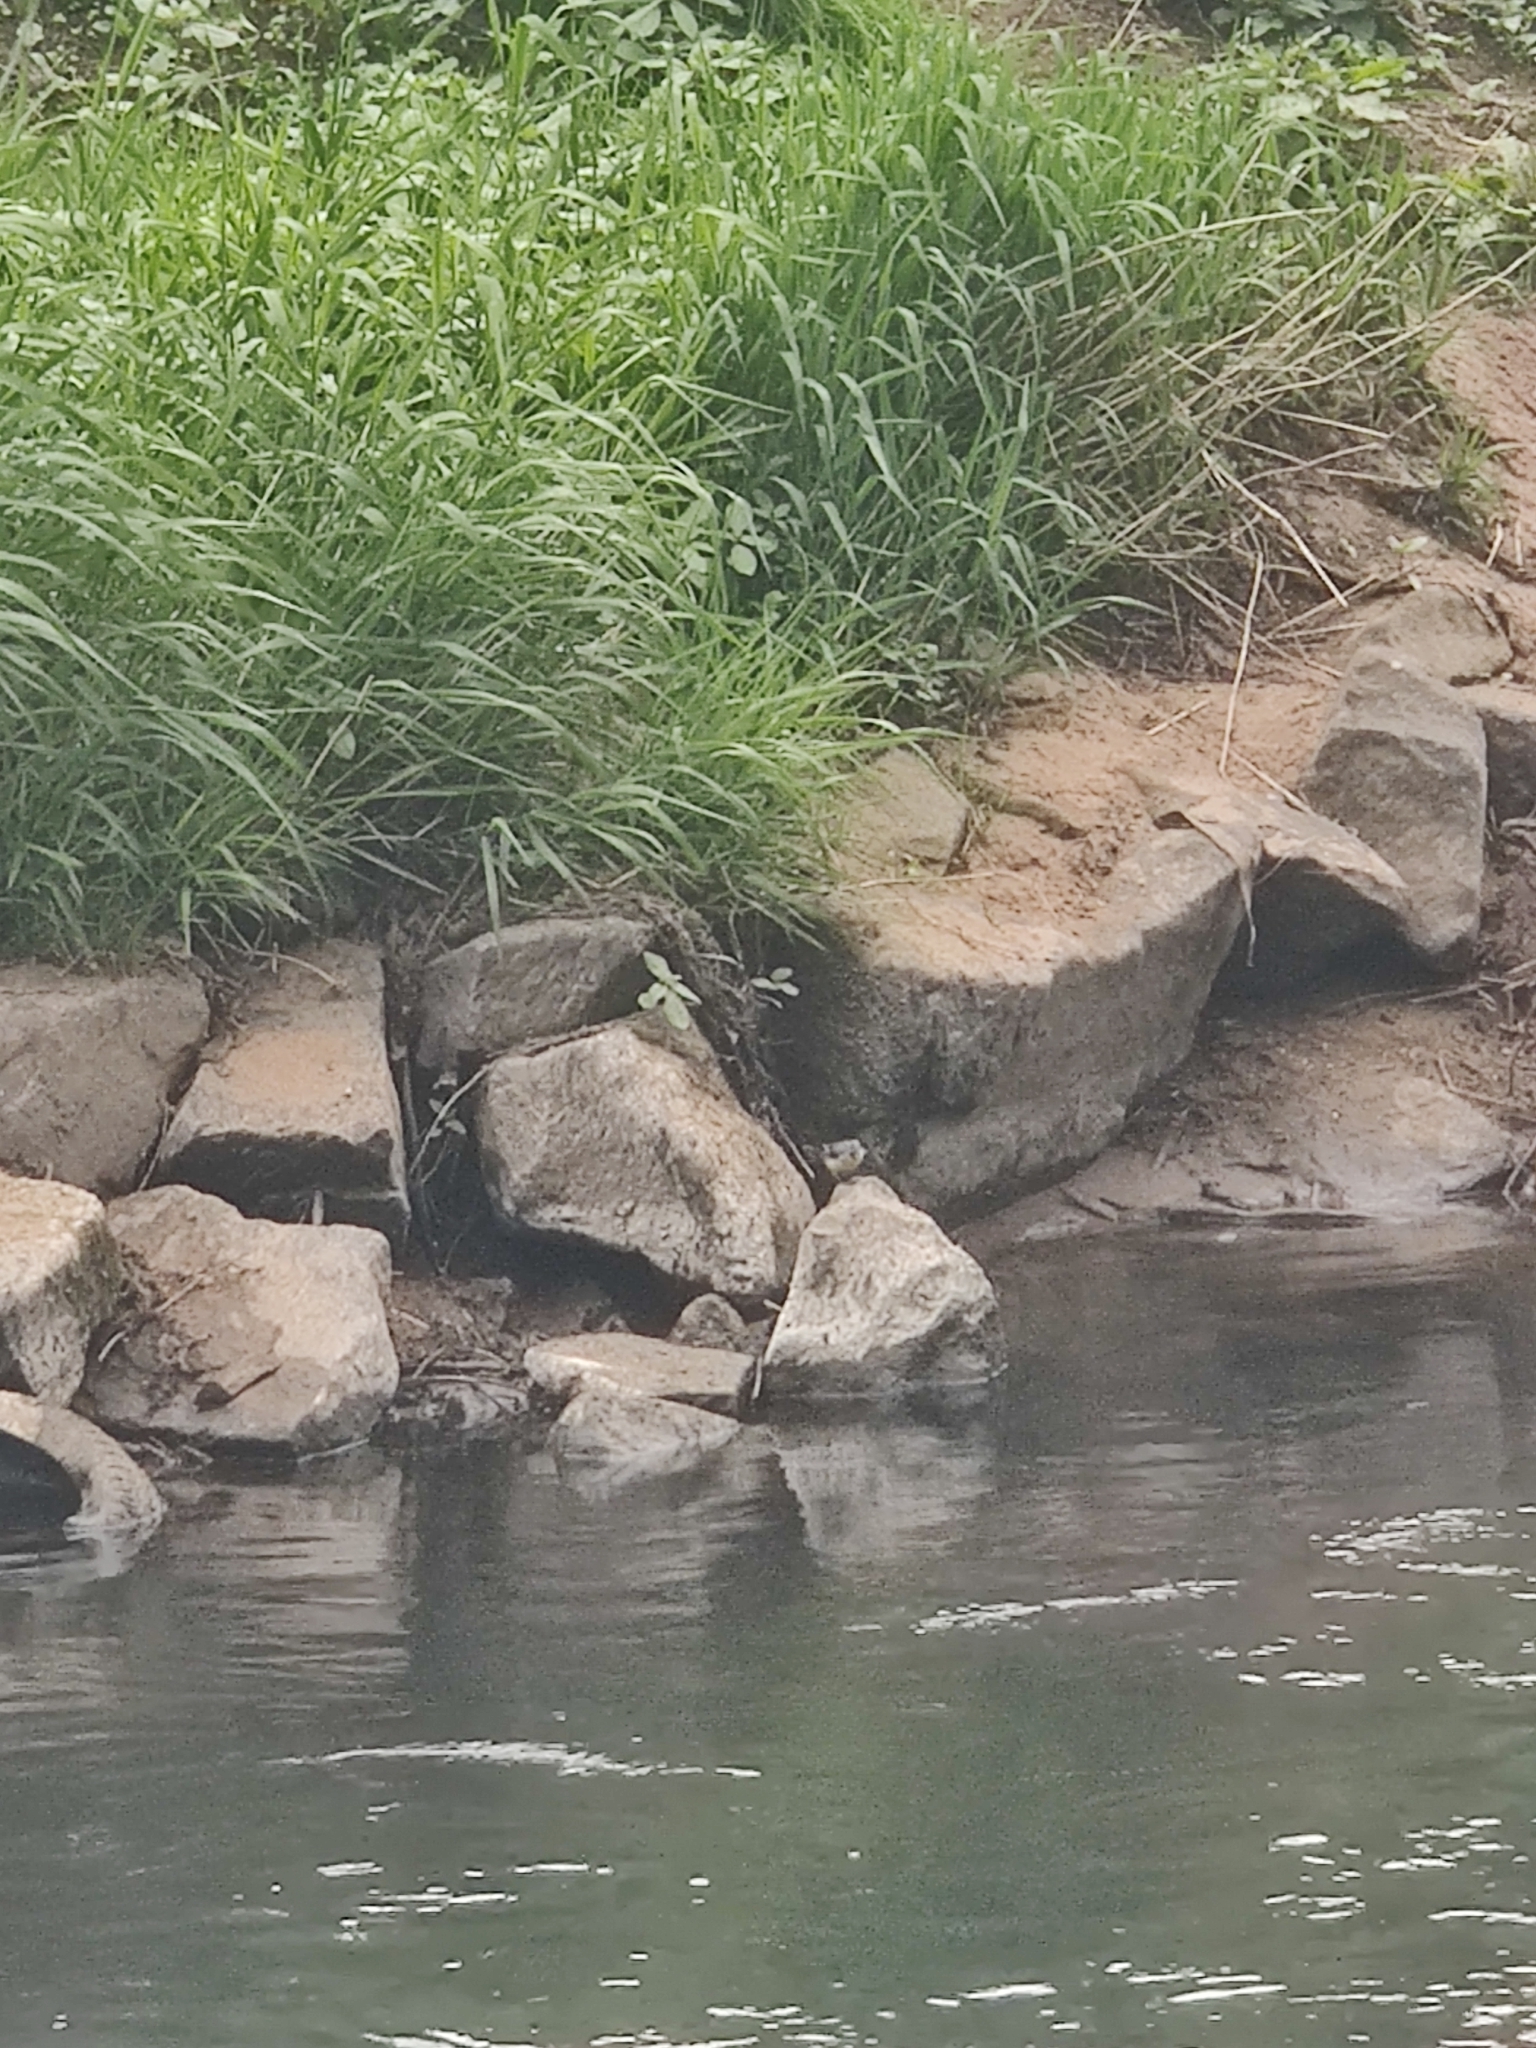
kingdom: Animalia
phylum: Chordata
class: Aves
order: Passeriformes
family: Motacillidae
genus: Motacilla
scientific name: Motacilla cinerea
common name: Grey wagtail
